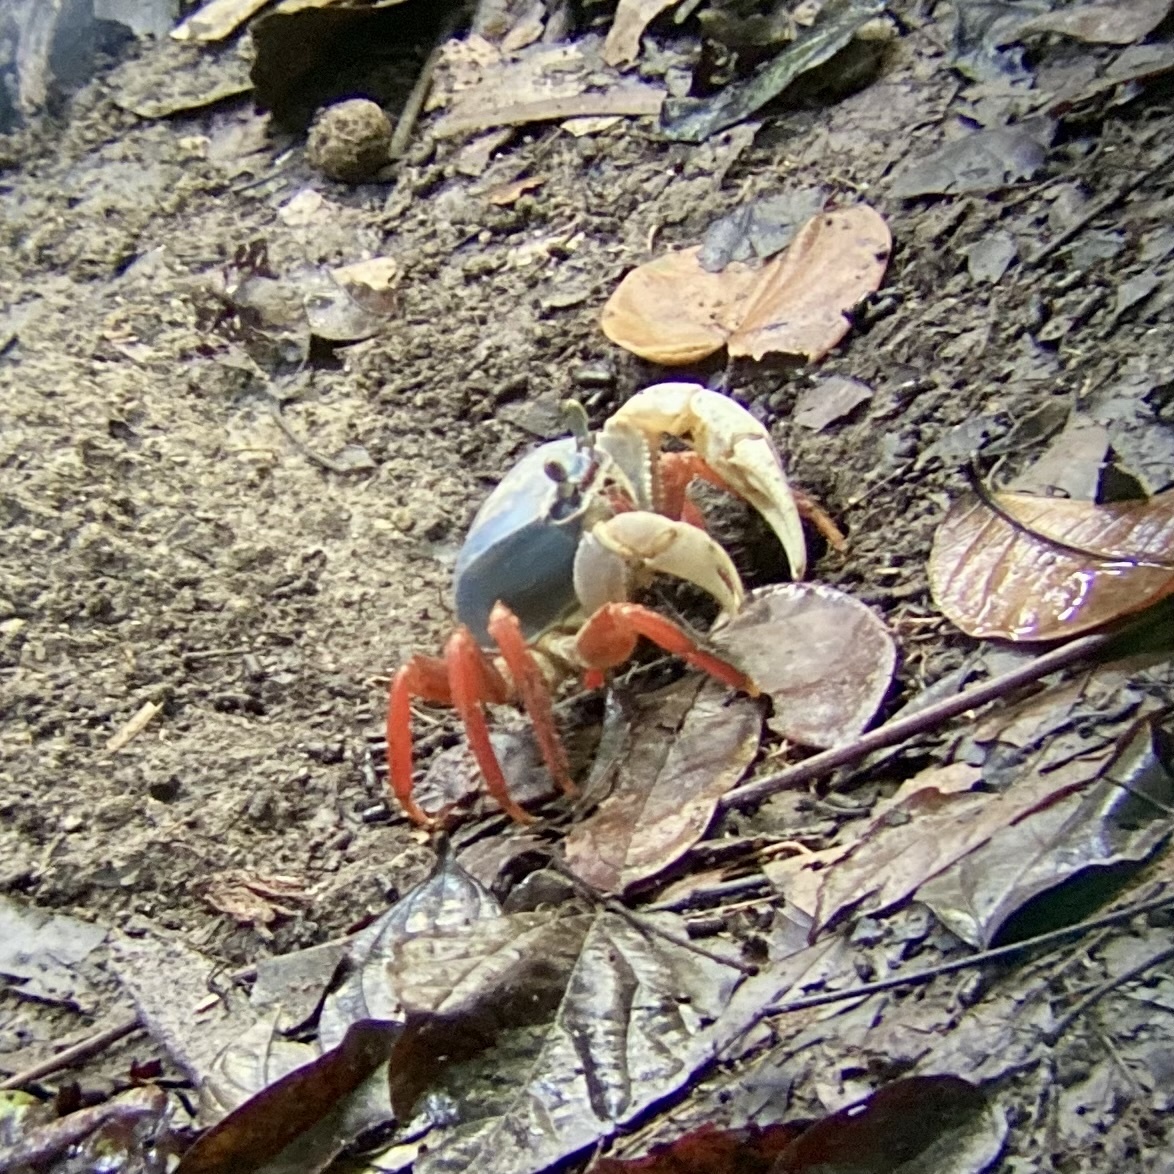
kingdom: Animalia
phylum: Arthropoda
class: Malacostraca
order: Decapoda
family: Gecarcinidae
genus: Cardisoma
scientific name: Cardisoma crassum
